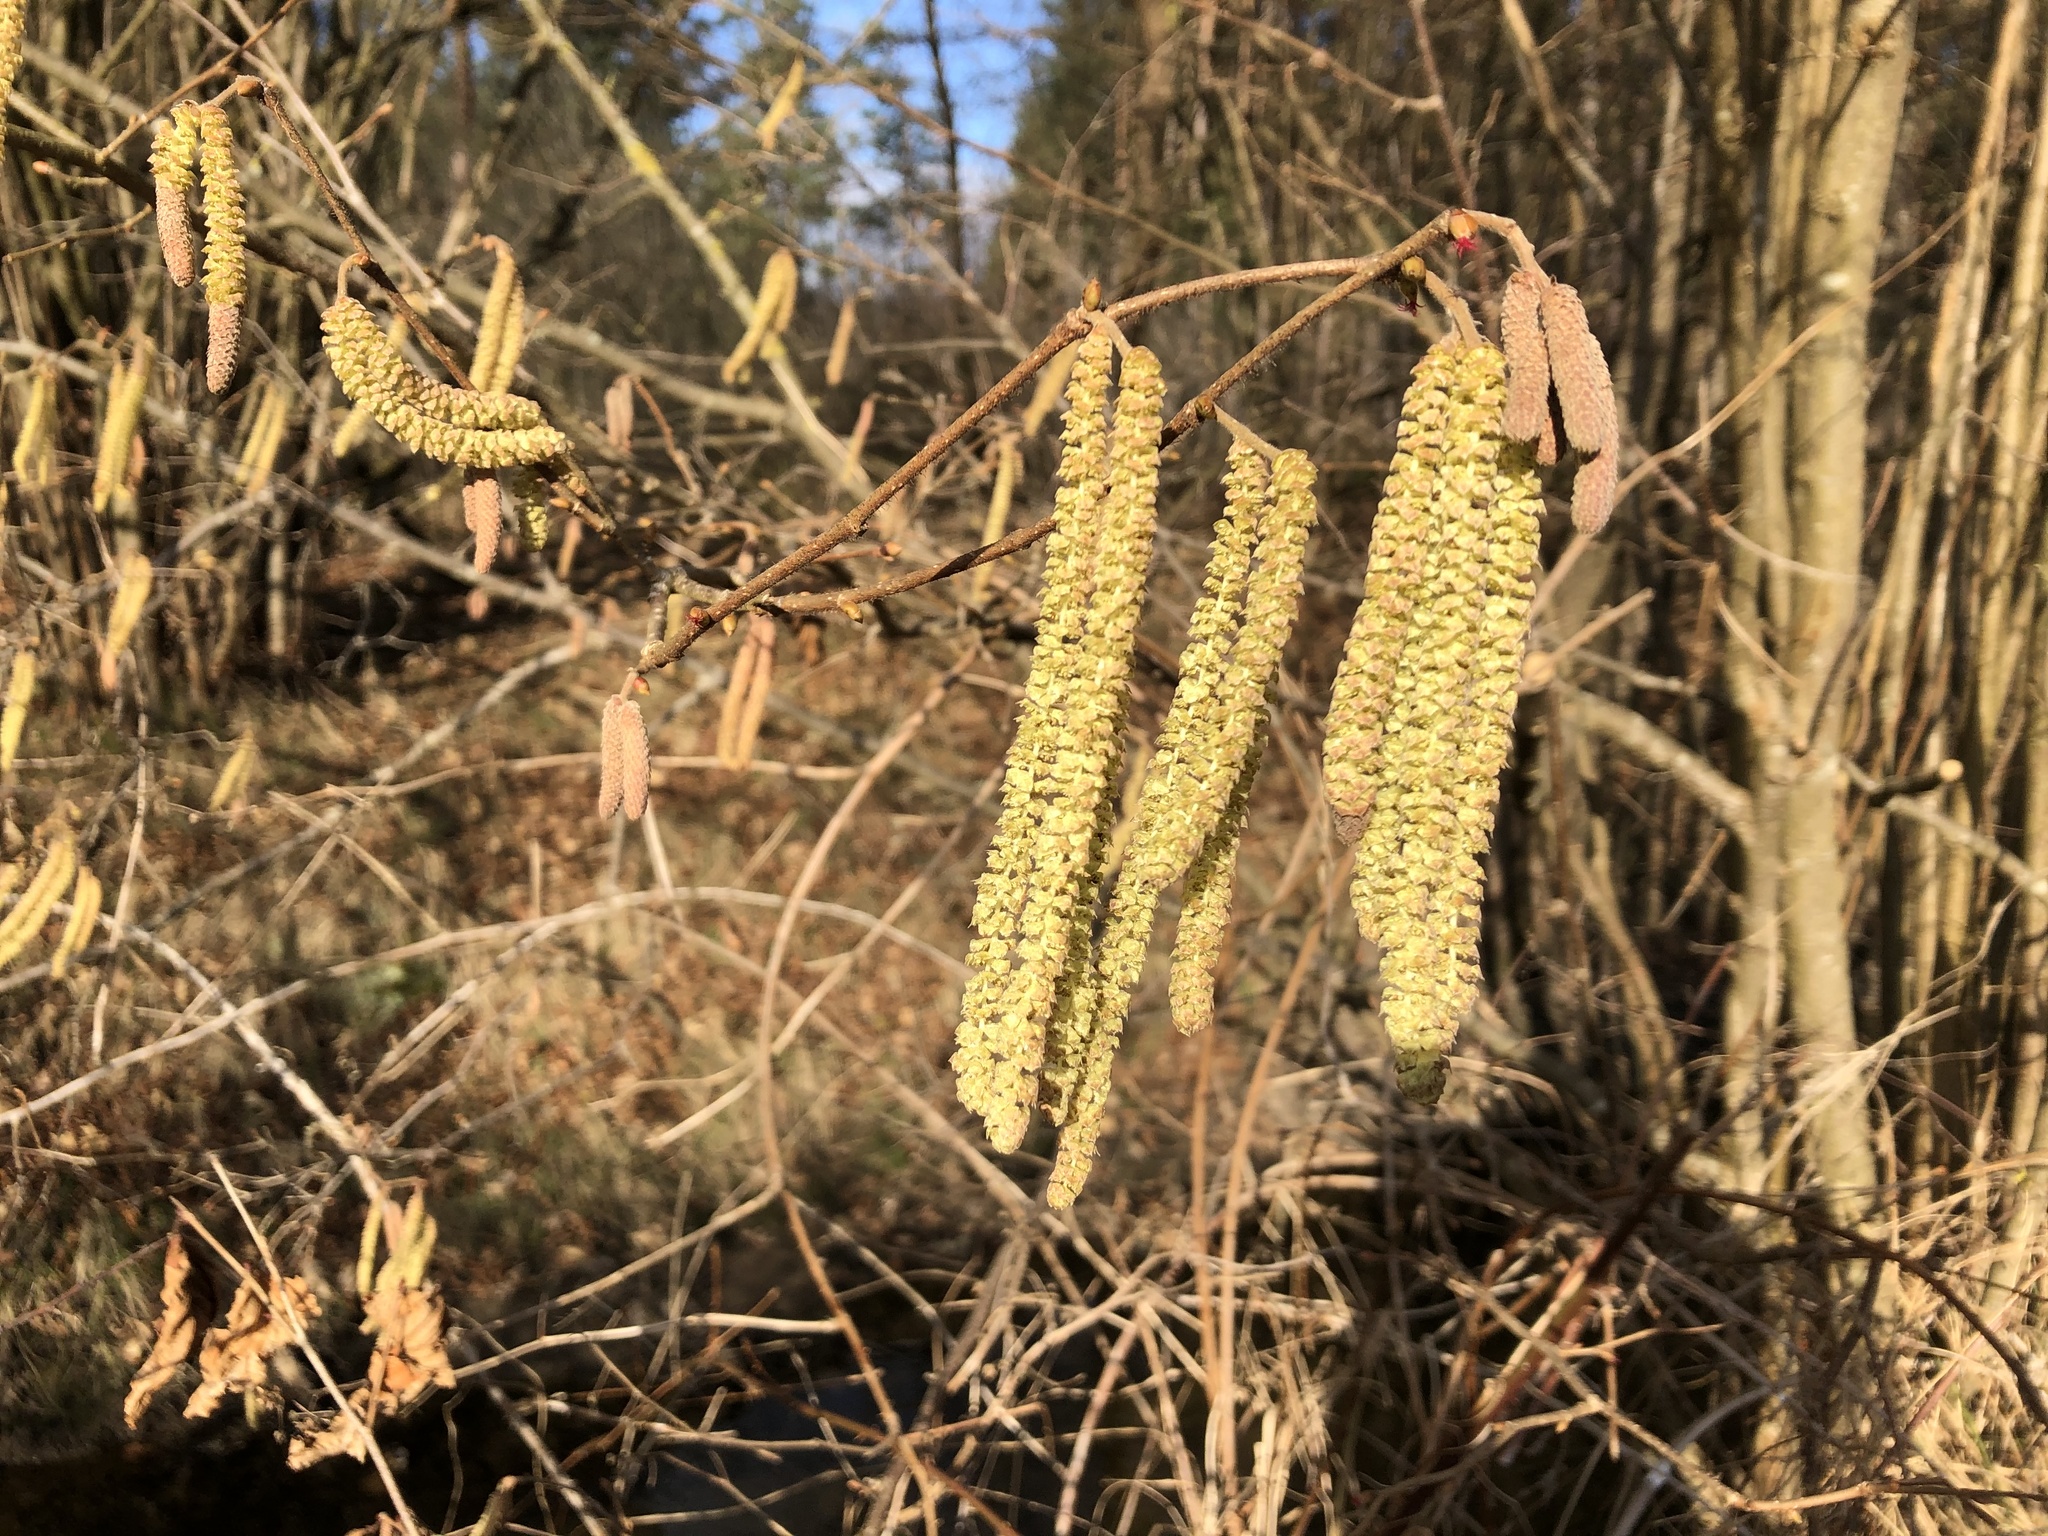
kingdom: Plantae
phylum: Tracheophyta
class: Magnoliopsida
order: Fagales
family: Betulaceae
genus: Corylus
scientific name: Corylus avellana
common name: European hazel
